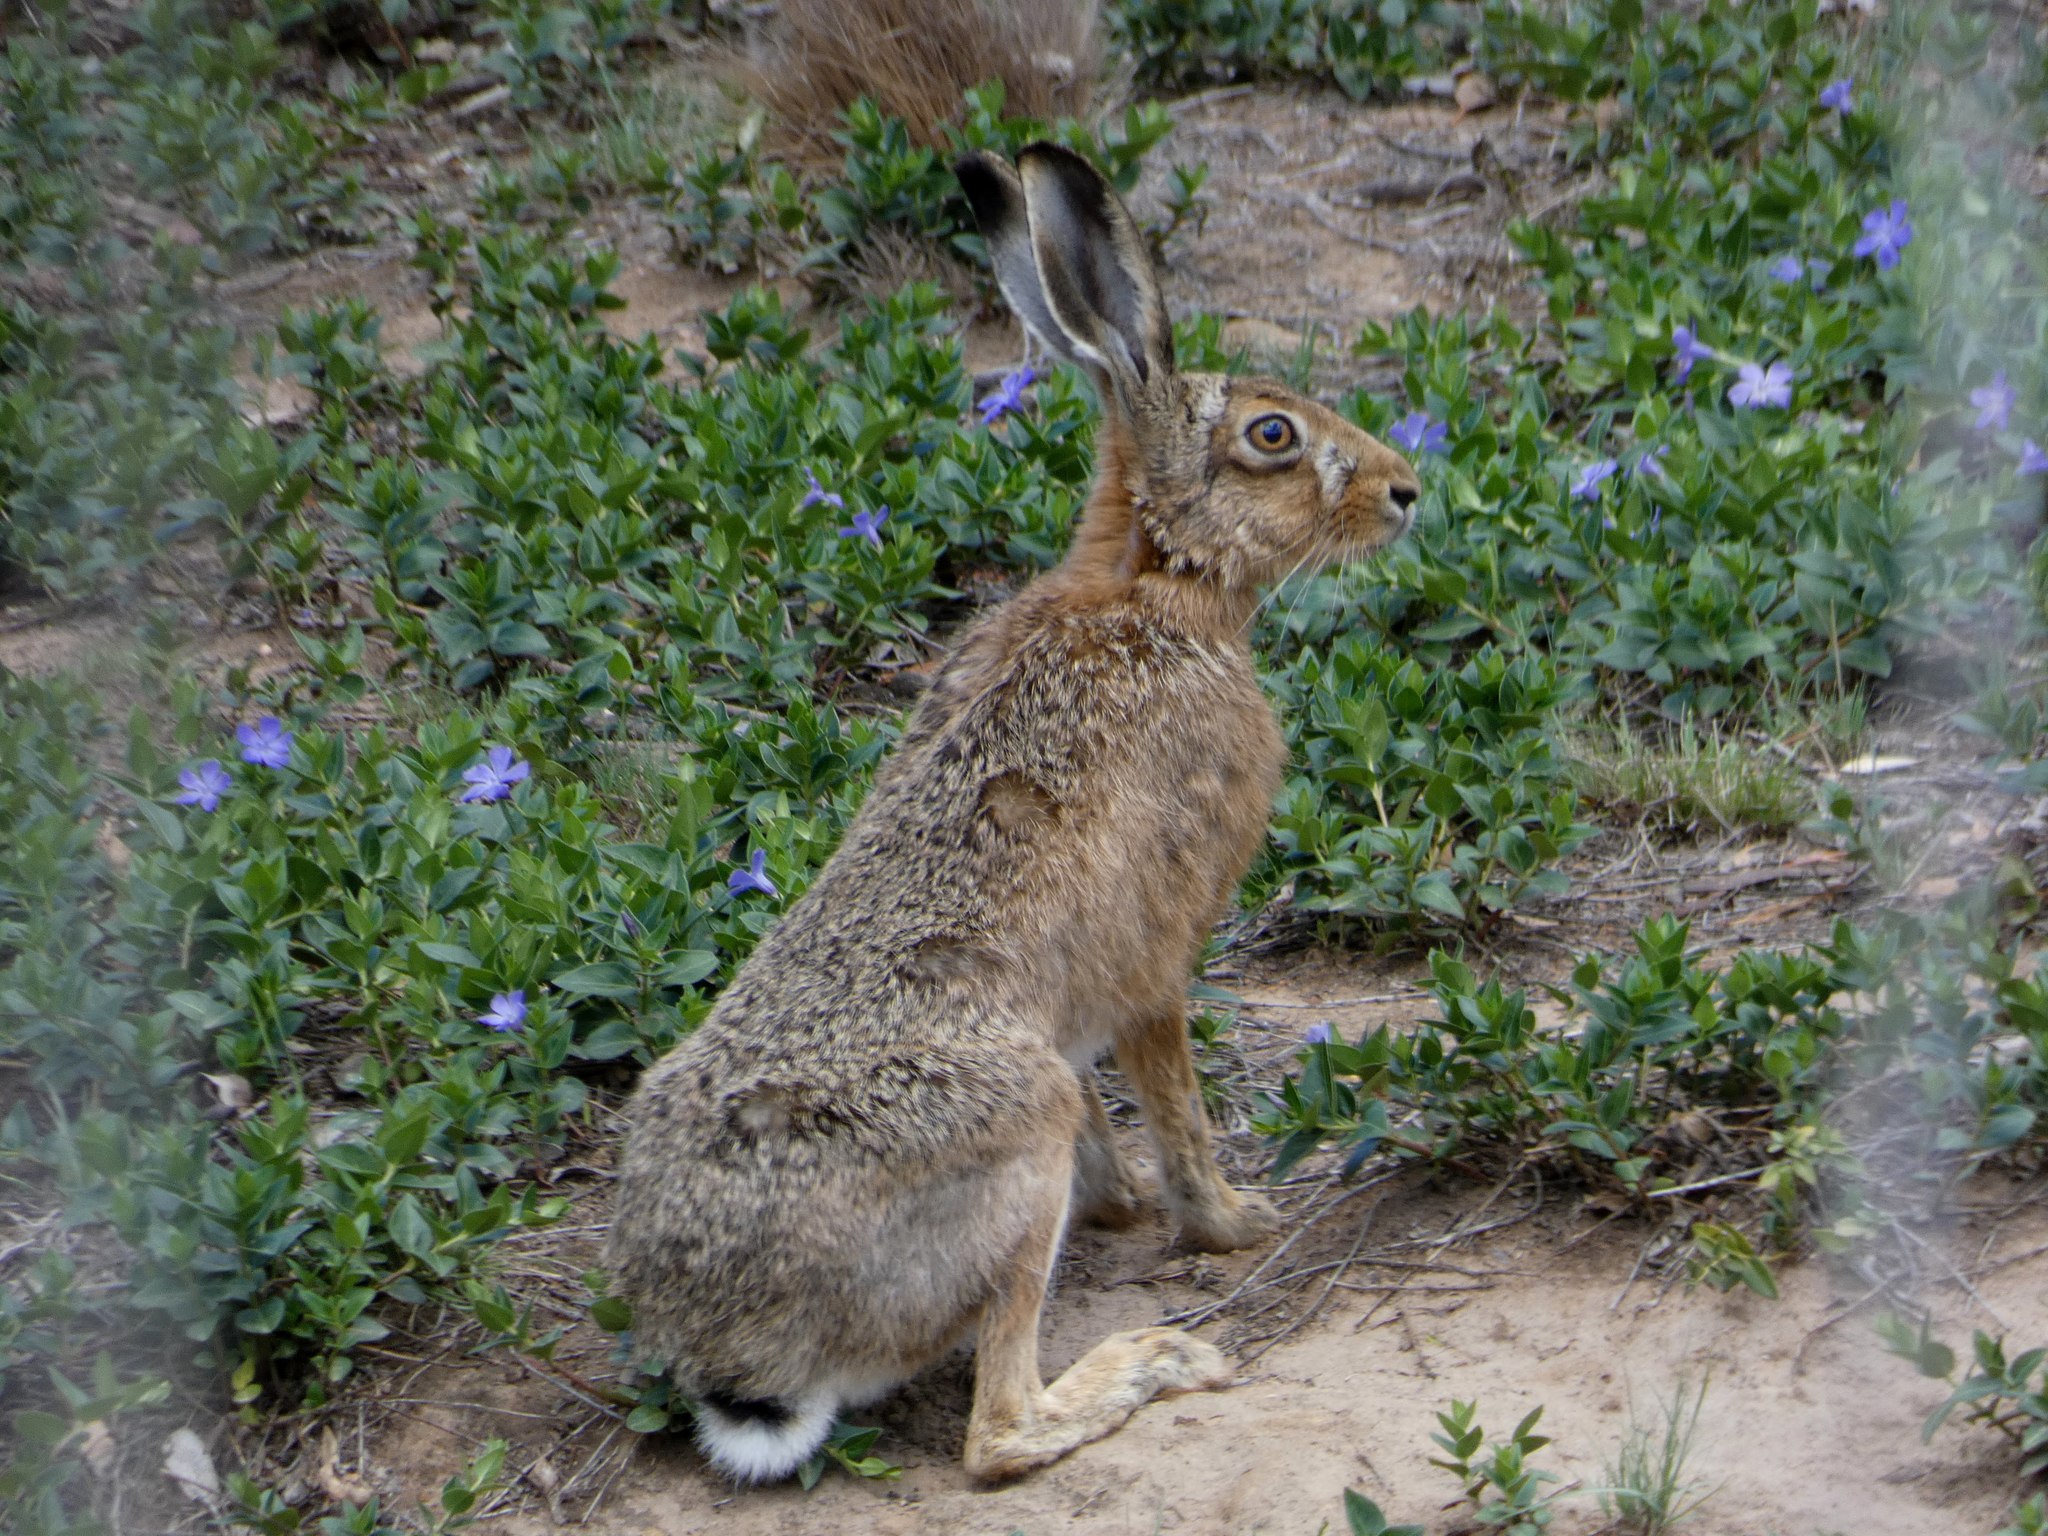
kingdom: Animalia
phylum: Chordata
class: Mammalia
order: Lagomorpha
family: Leporidae
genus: Lepus
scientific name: Lepus europaeus
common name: European hare
